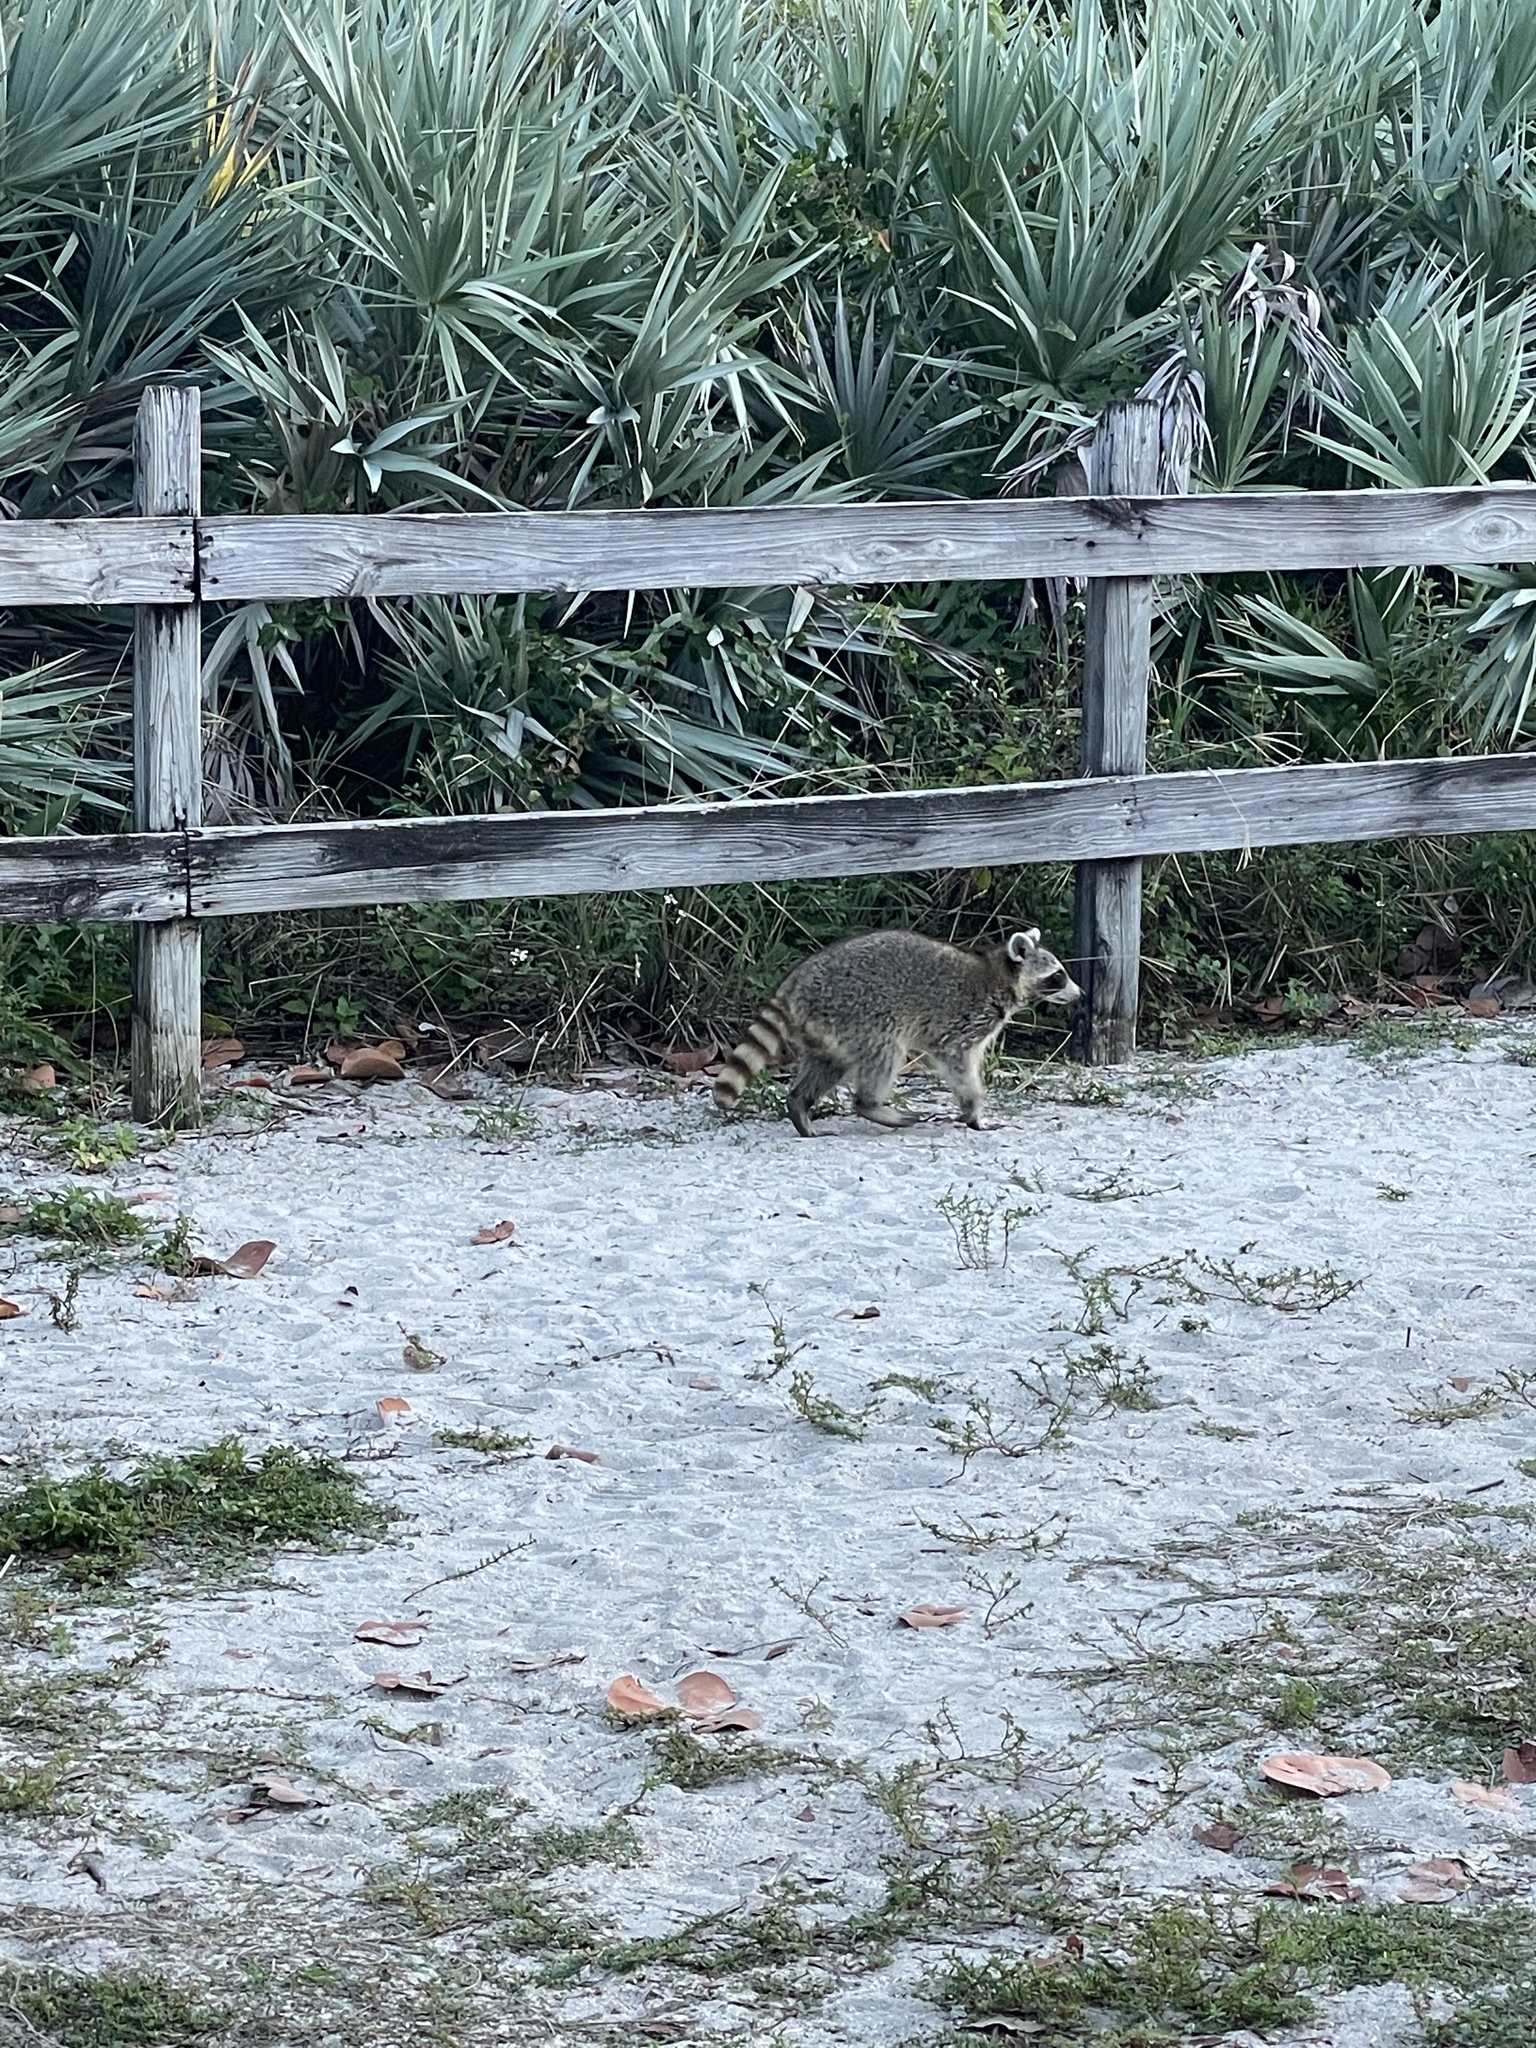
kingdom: Animalia
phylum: Chordata
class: Mammalia
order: Carnivora
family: Procyonidae
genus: Procyon
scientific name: Procyon lotor
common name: Raccoon
